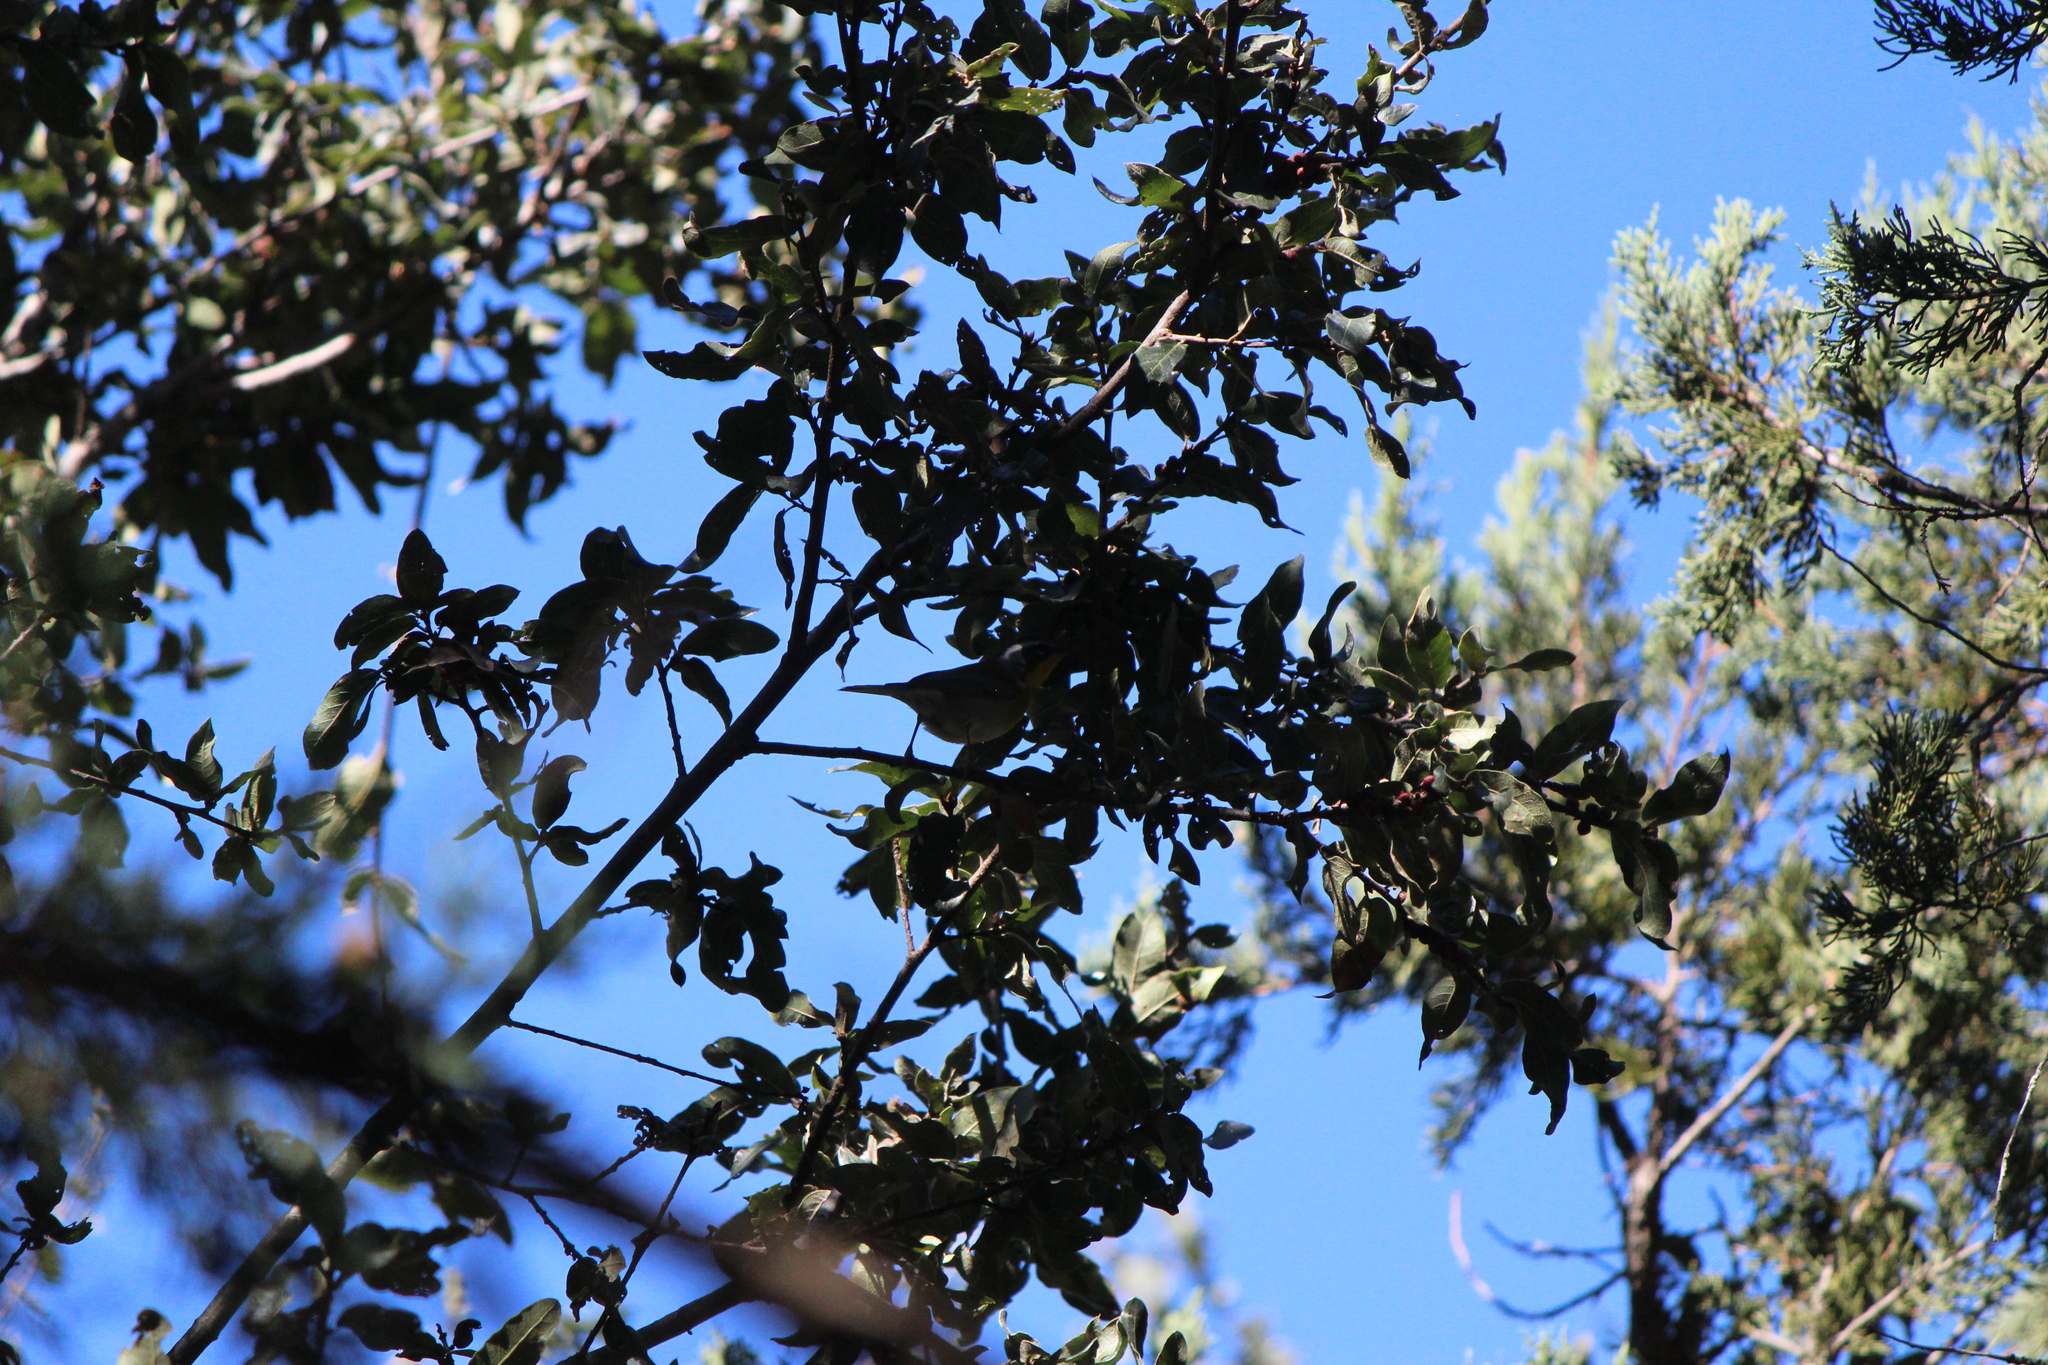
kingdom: Animalia
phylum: Chordata
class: Aves
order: Passeriformes
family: Parulidae
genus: Oreothlypis
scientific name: Oreothlypis superciliosa
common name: Crescent-chested warbler
